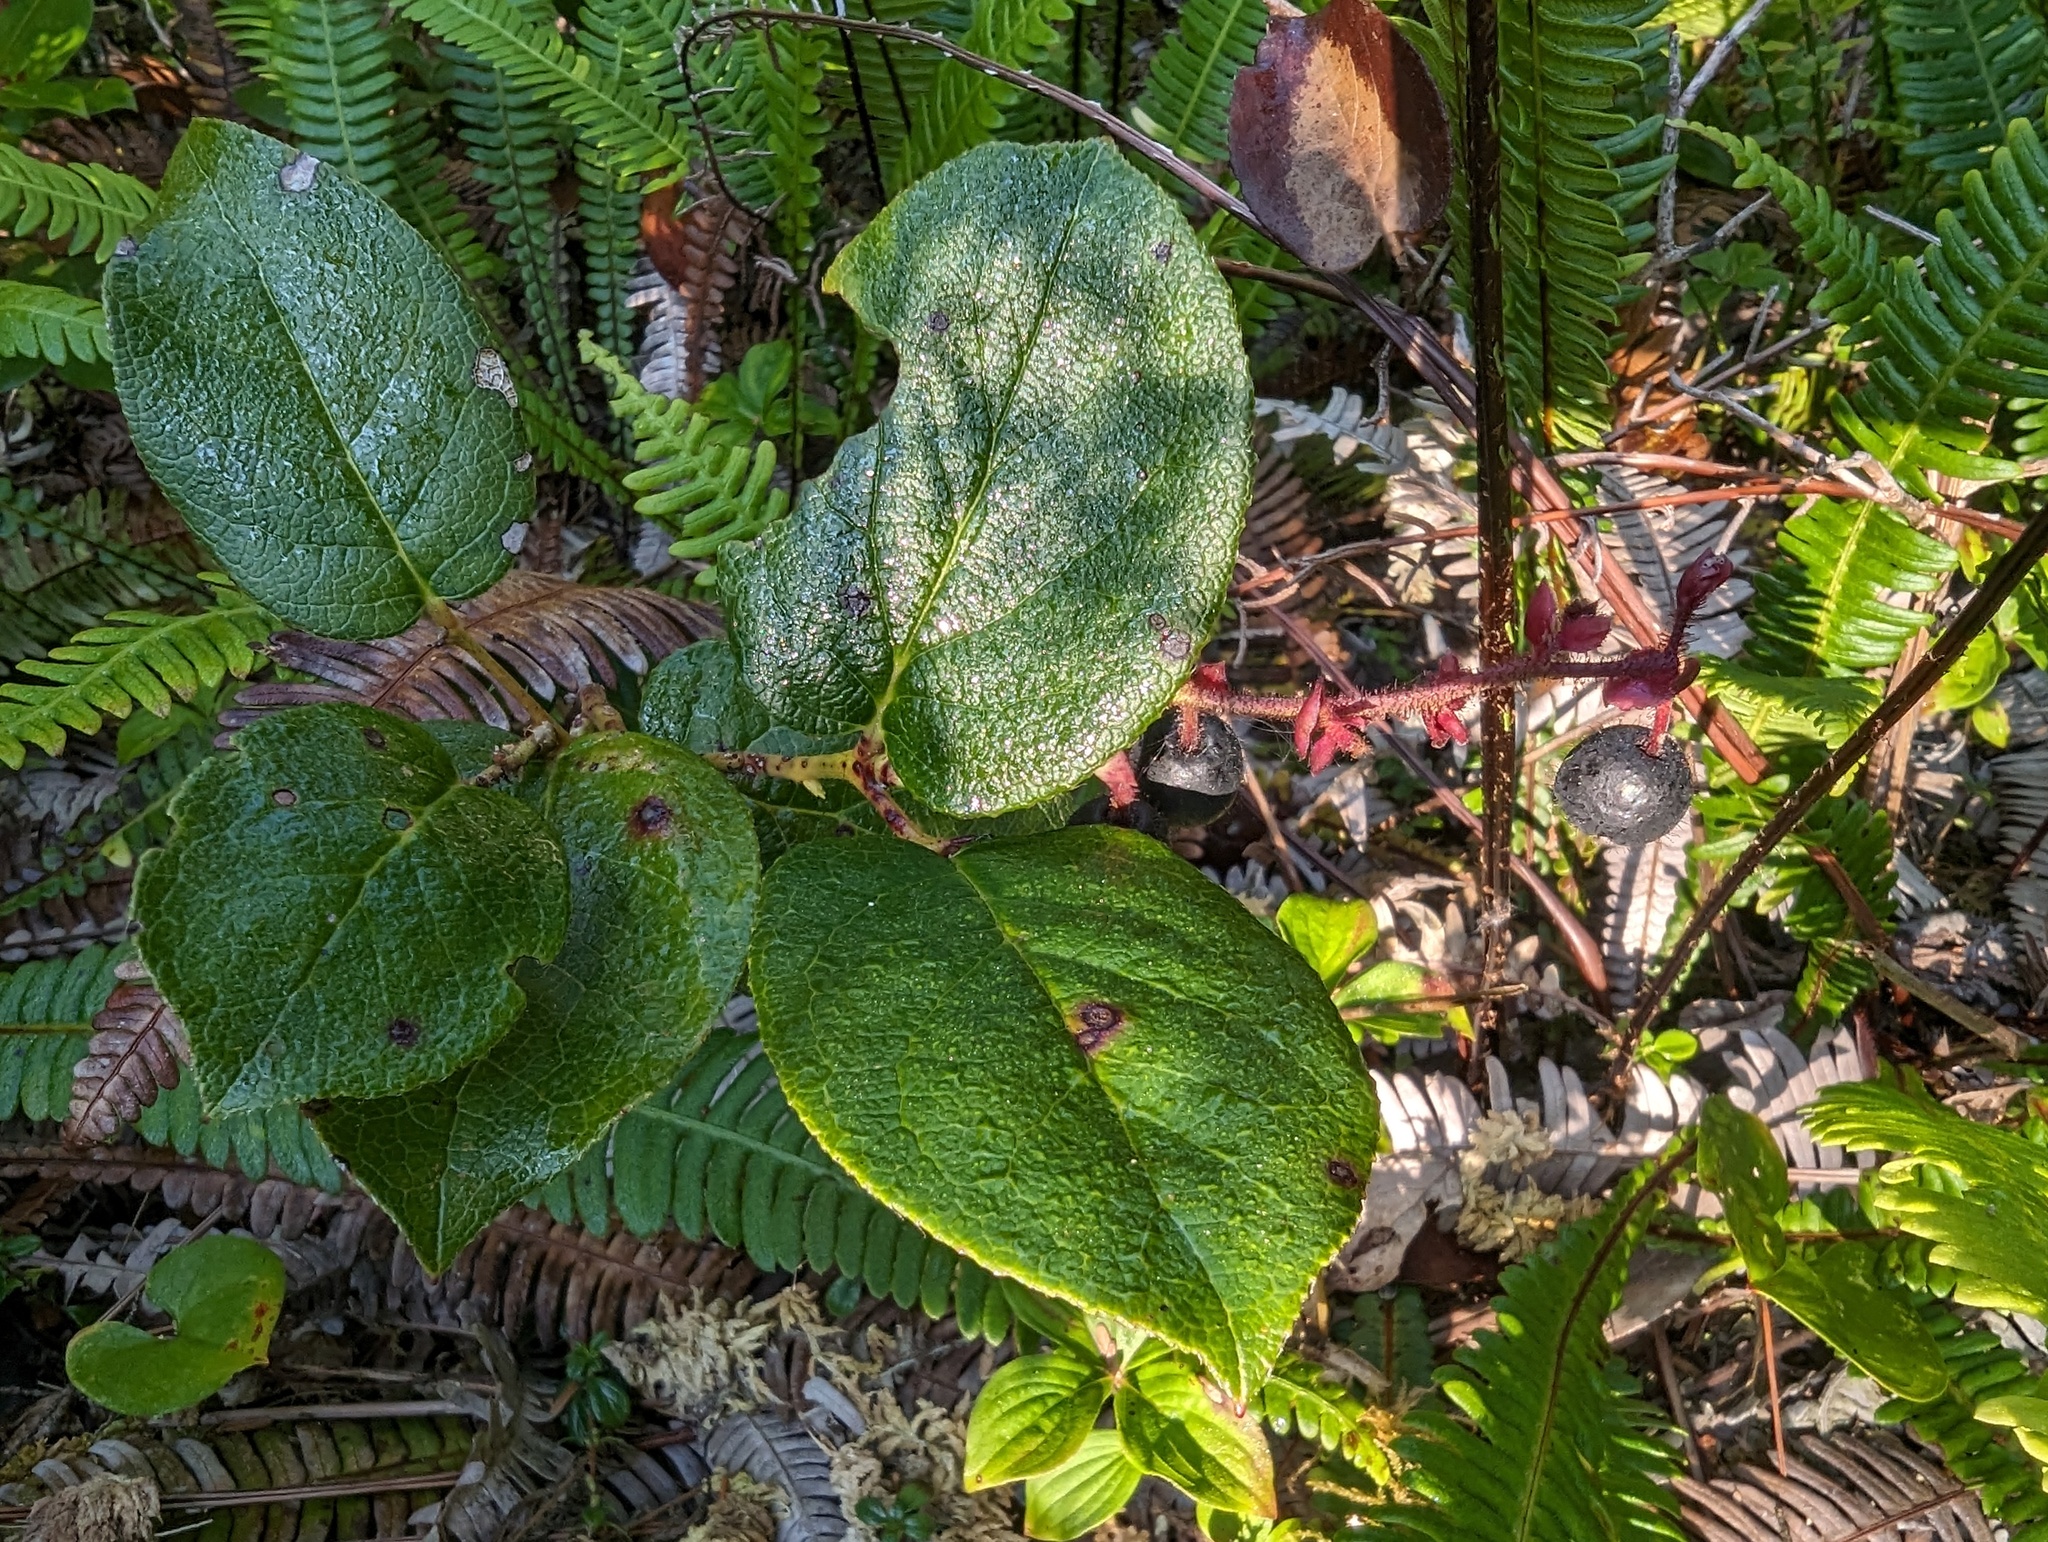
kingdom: Plantae
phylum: Tracheophyta
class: Magnoliopsida
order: Ericales
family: Ericaceae
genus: Gaultheria
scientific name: Gaultheria shallon
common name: Shallon
